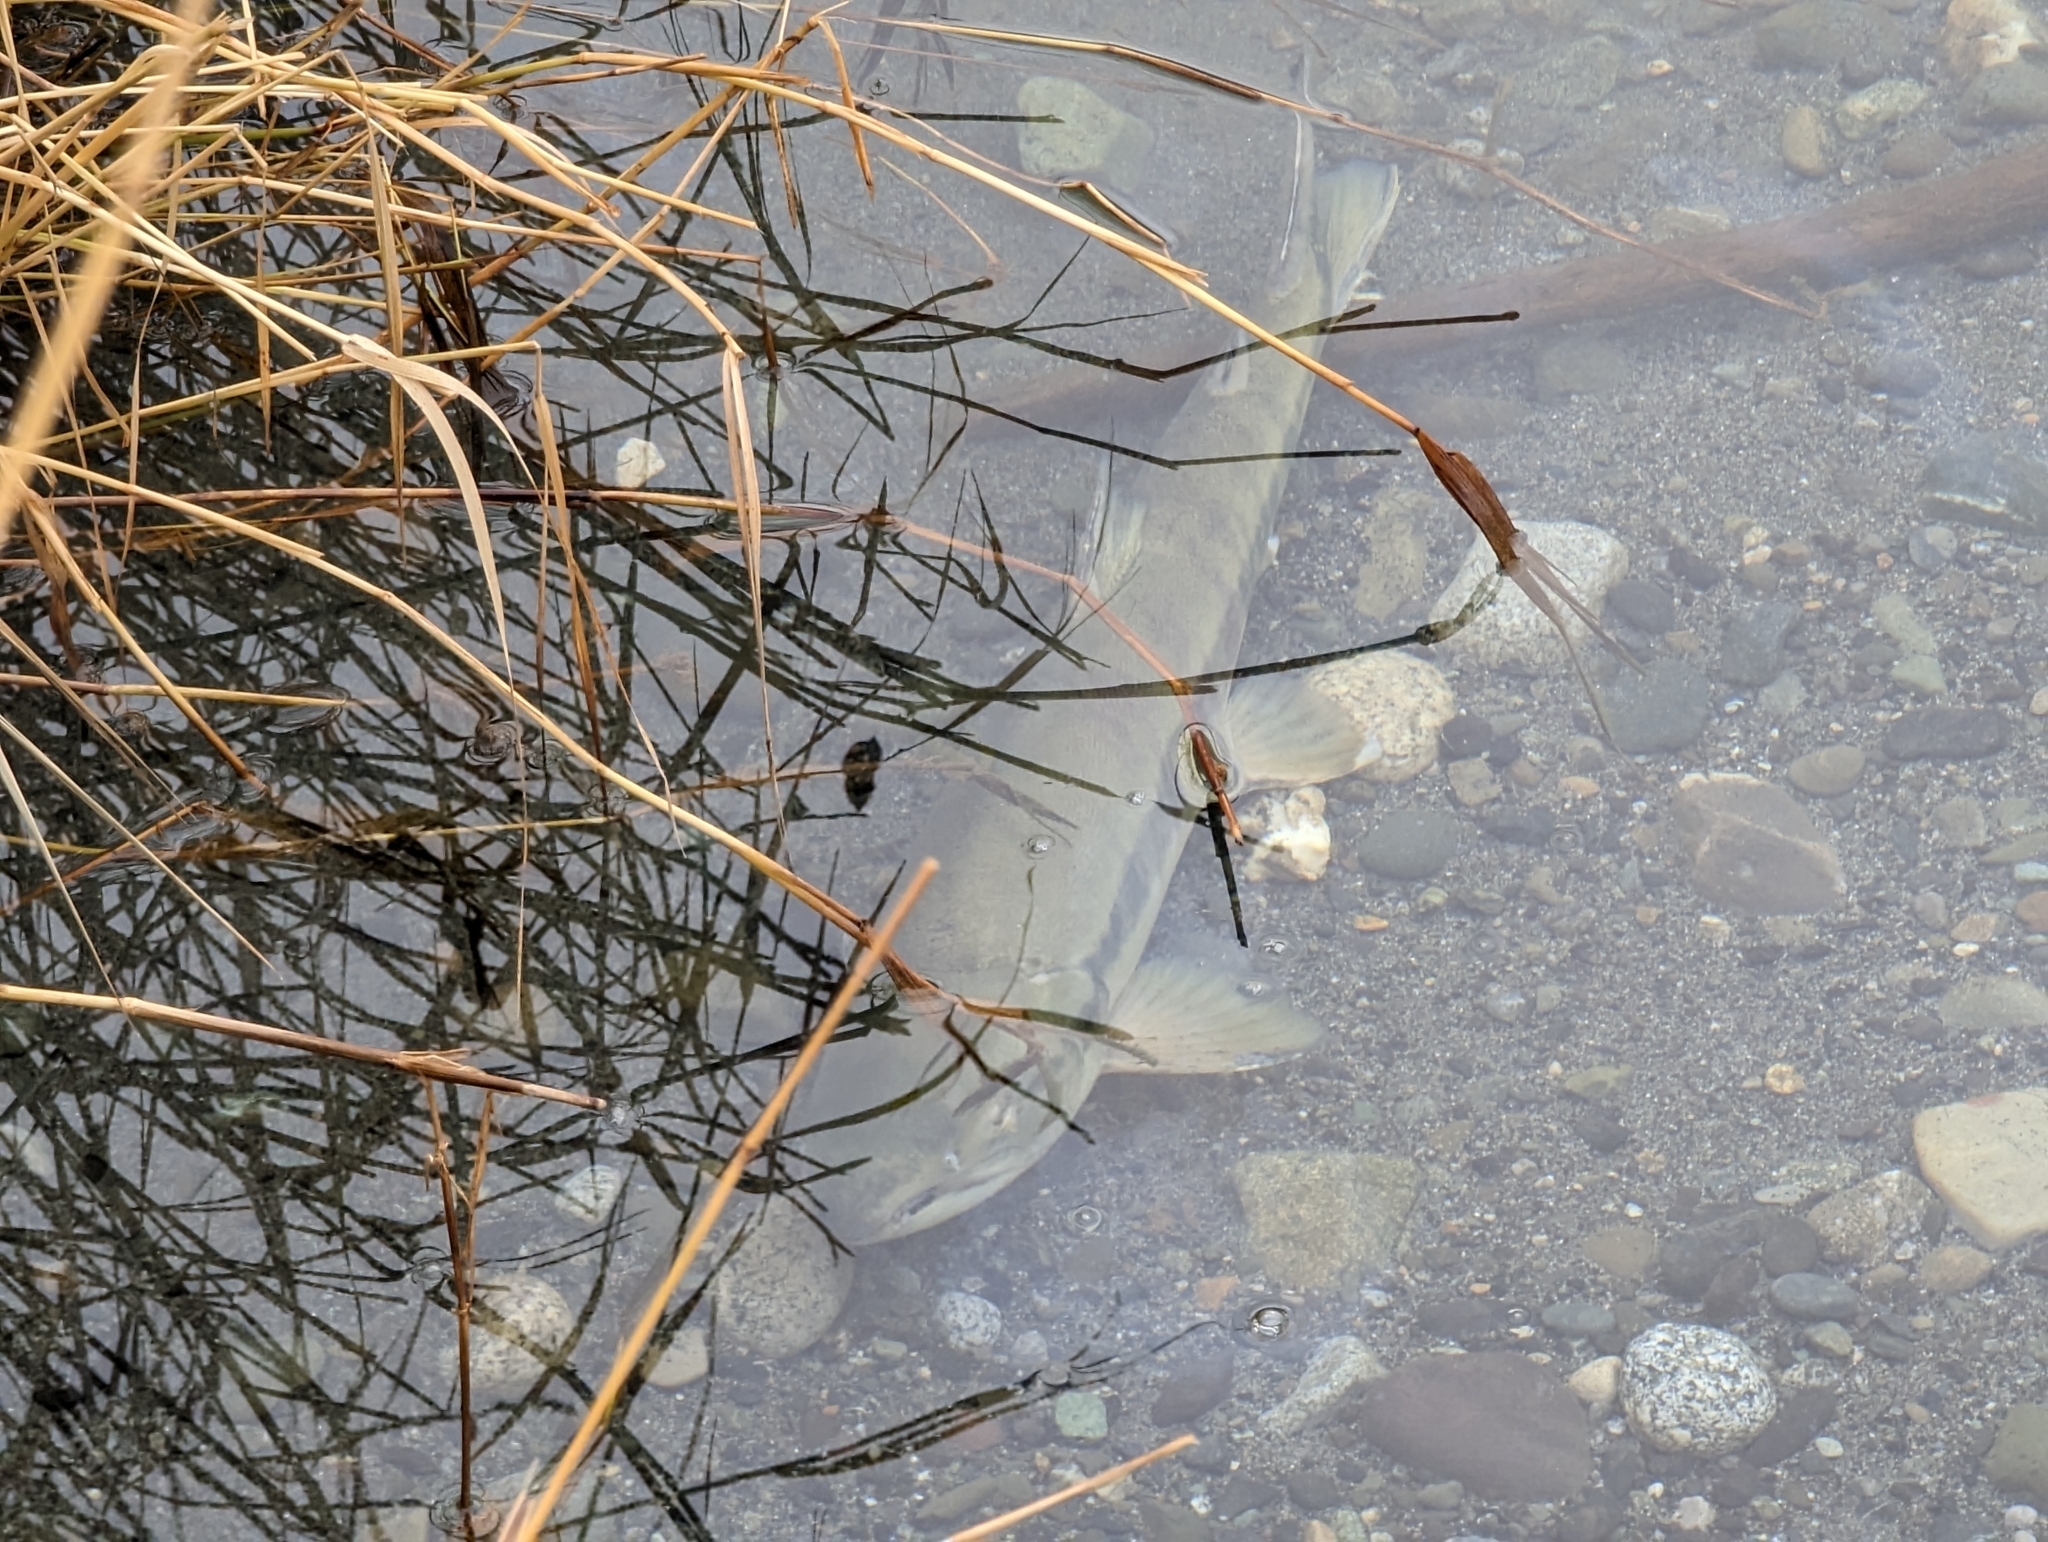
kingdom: Animalia
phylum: Chordata
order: Salmoniformes
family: Salmonidae
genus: Oncorhynchus
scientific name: Oncorhynchus keta
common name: Chum salmon
